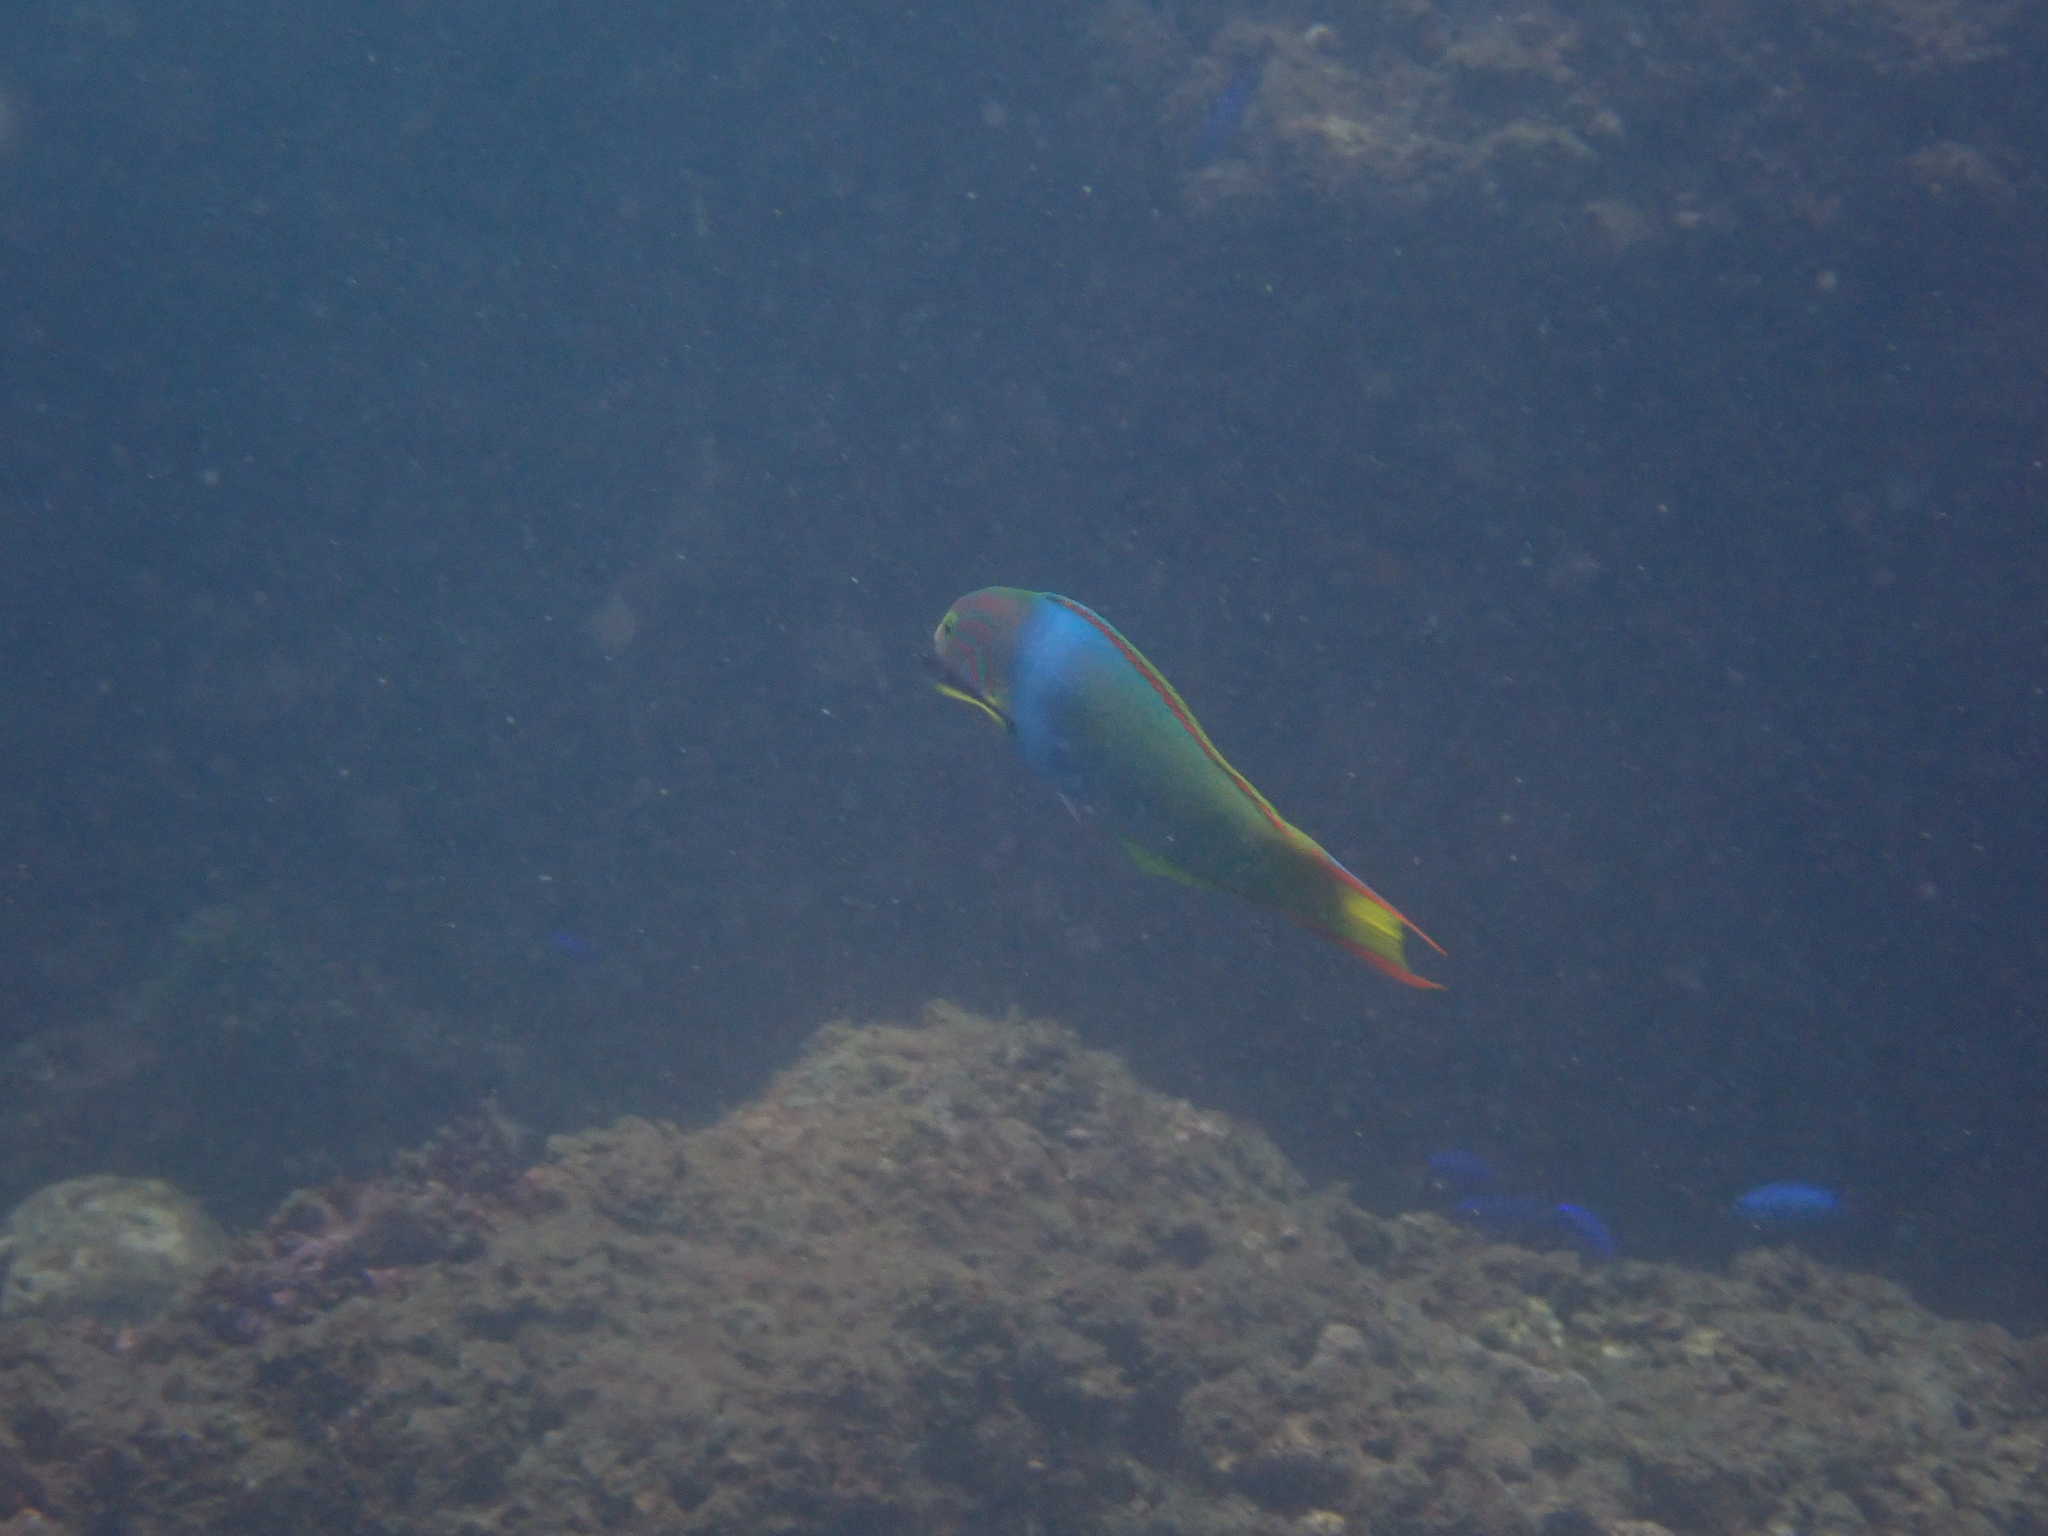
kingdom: Animalia
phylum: Chordata
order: Perciformes
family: Labridae
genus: Thalassoma
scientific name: Thalassoma lutescens
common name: Green moon wrasse
